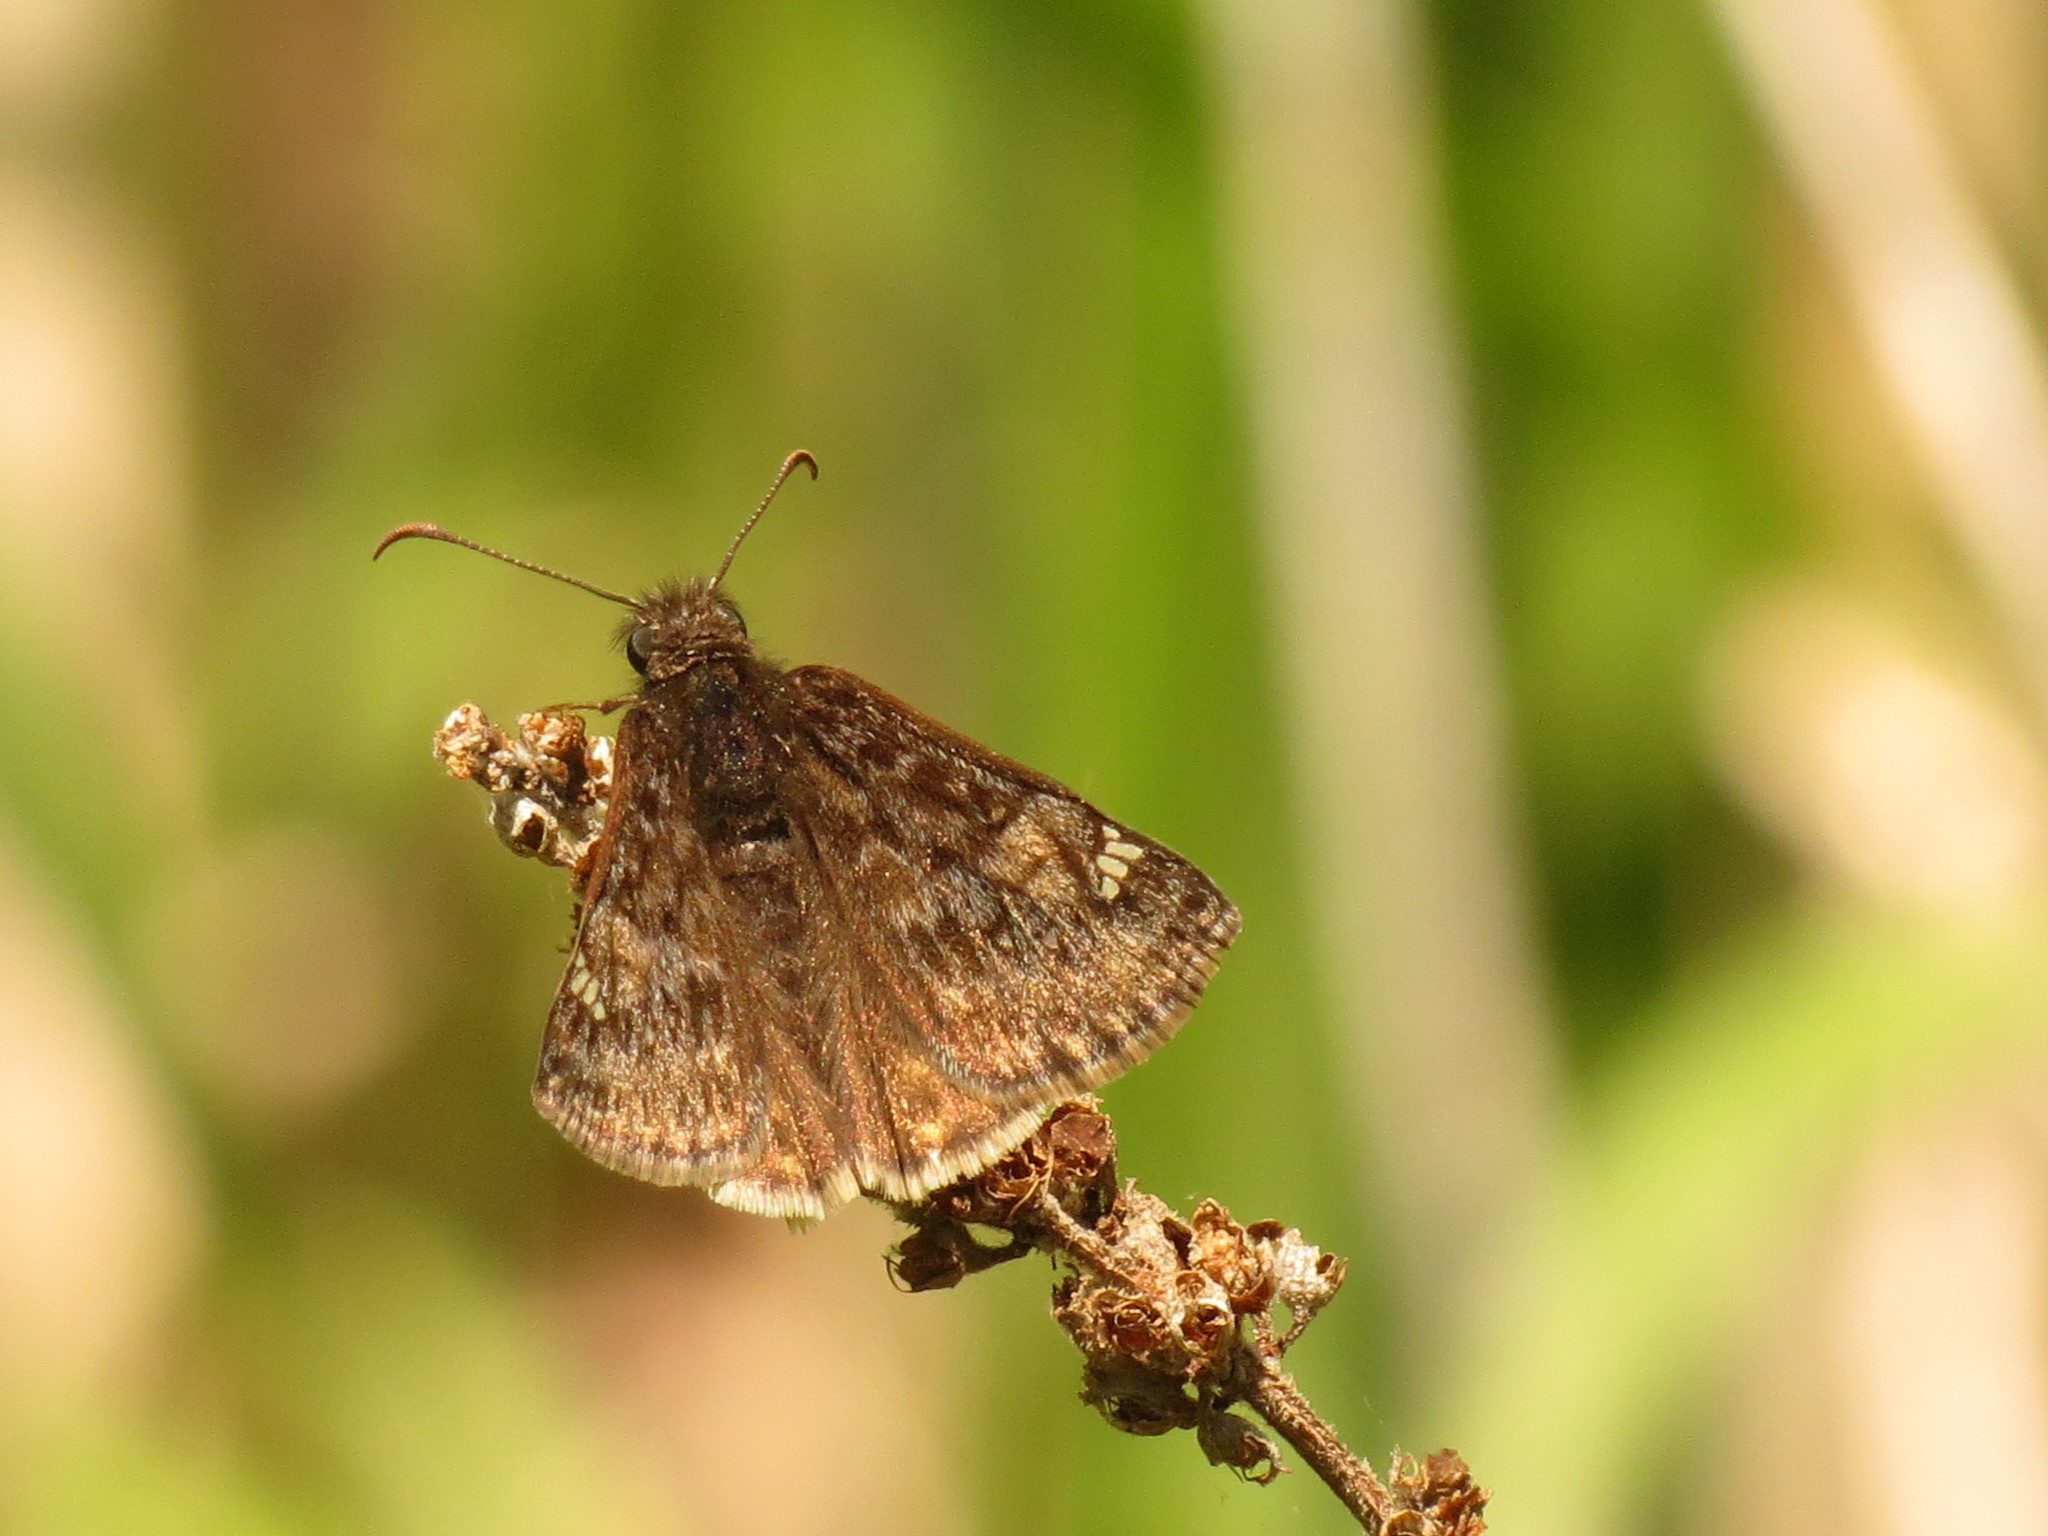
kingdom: Animalia
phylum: Arthropoda
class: Insecta
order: Lepidoptera
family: Hesperiidae
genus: Erynnis
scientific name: Erynnis baptisiae
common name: Wild indigo duskywing
